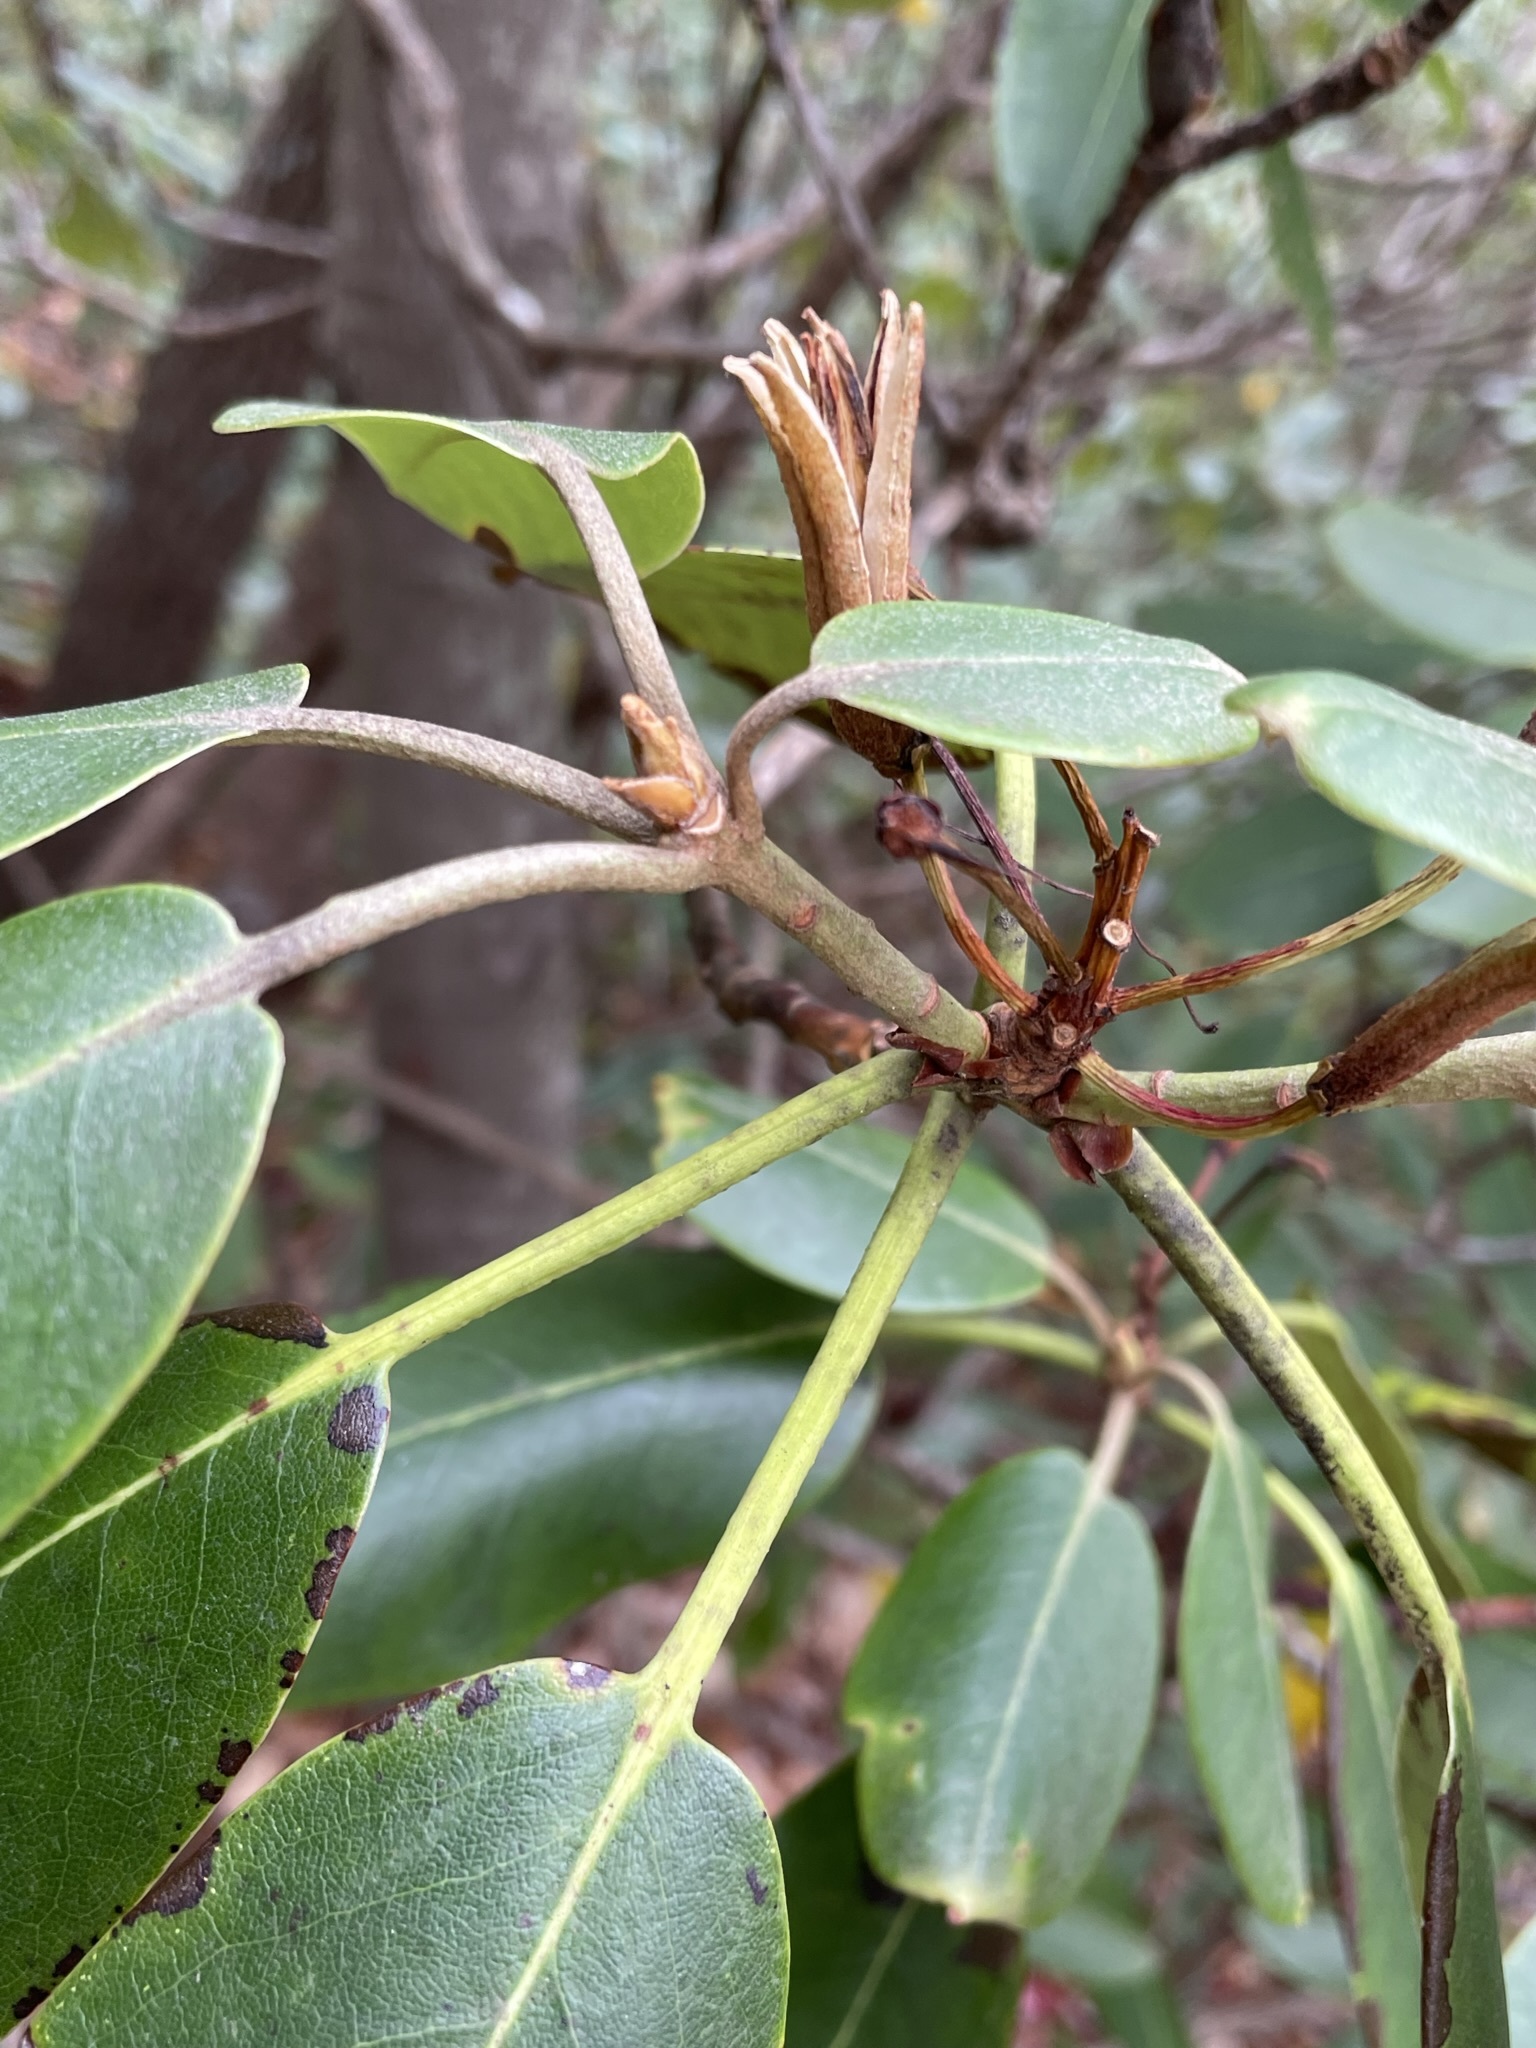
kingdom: Plantae
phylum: Tracheophyta
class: Magnoliopsida
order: Ericales
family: Ericaceae
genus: Rhododendron
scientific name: Rhododendron catawbiense
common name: Catawba rhododendron
